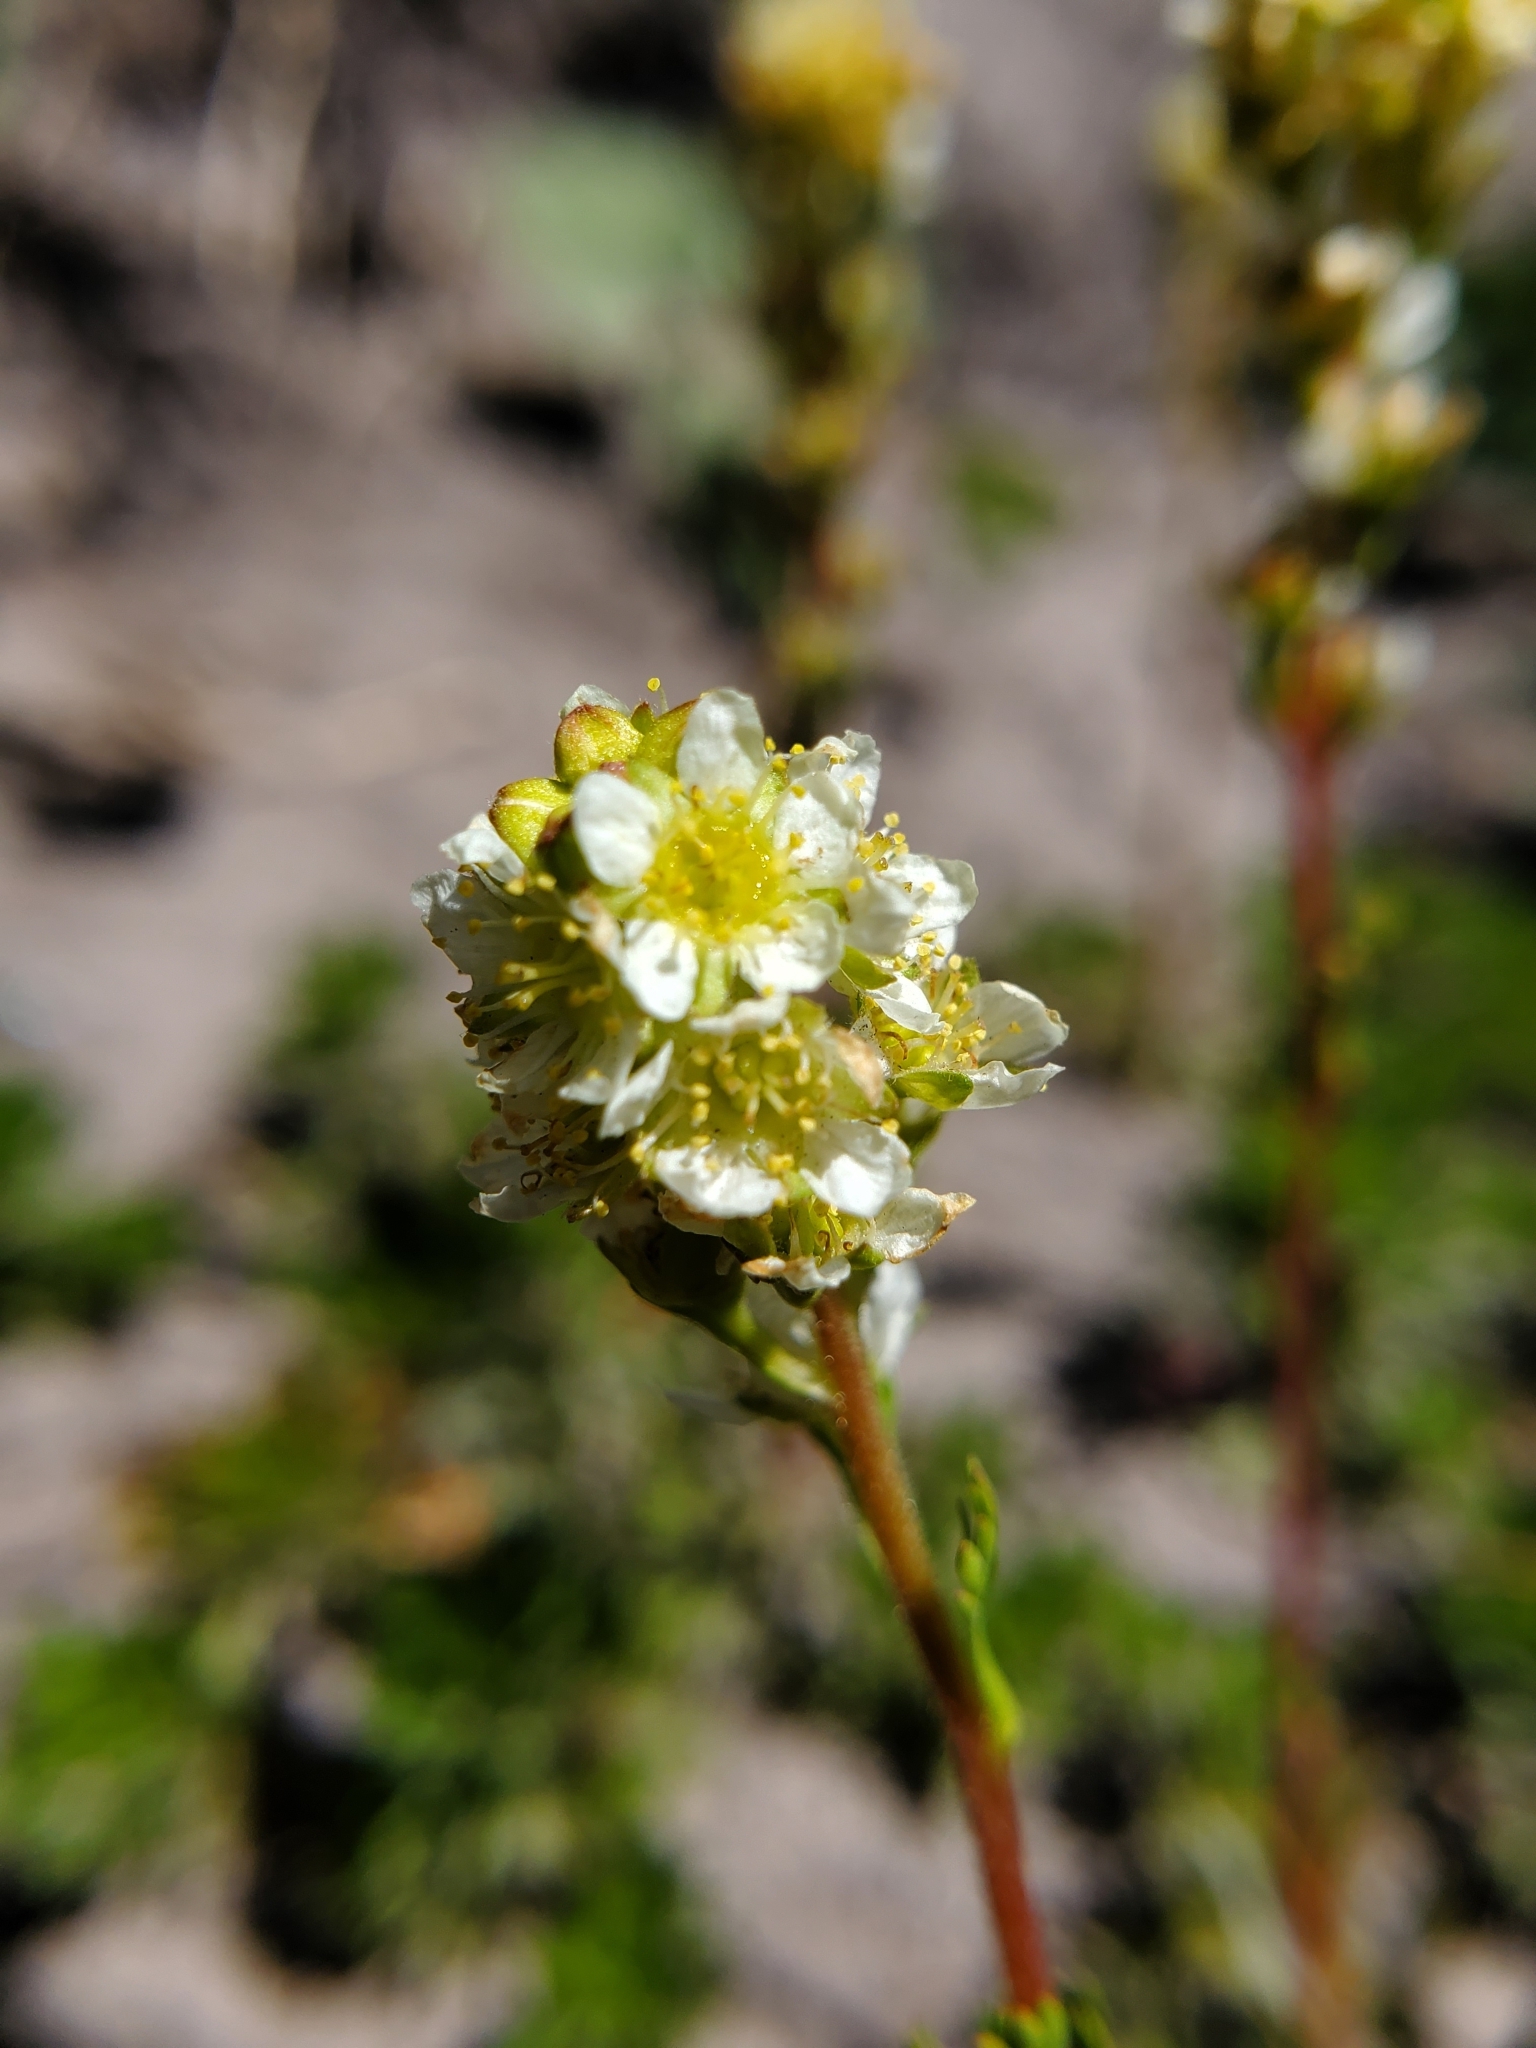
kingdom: Plantae
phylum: Tracheophyta
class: Magnoliopsida
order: Rosales
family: Rosaceae
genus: Luetkea
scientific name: Luetkea pectinata
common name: Partridgefoot
